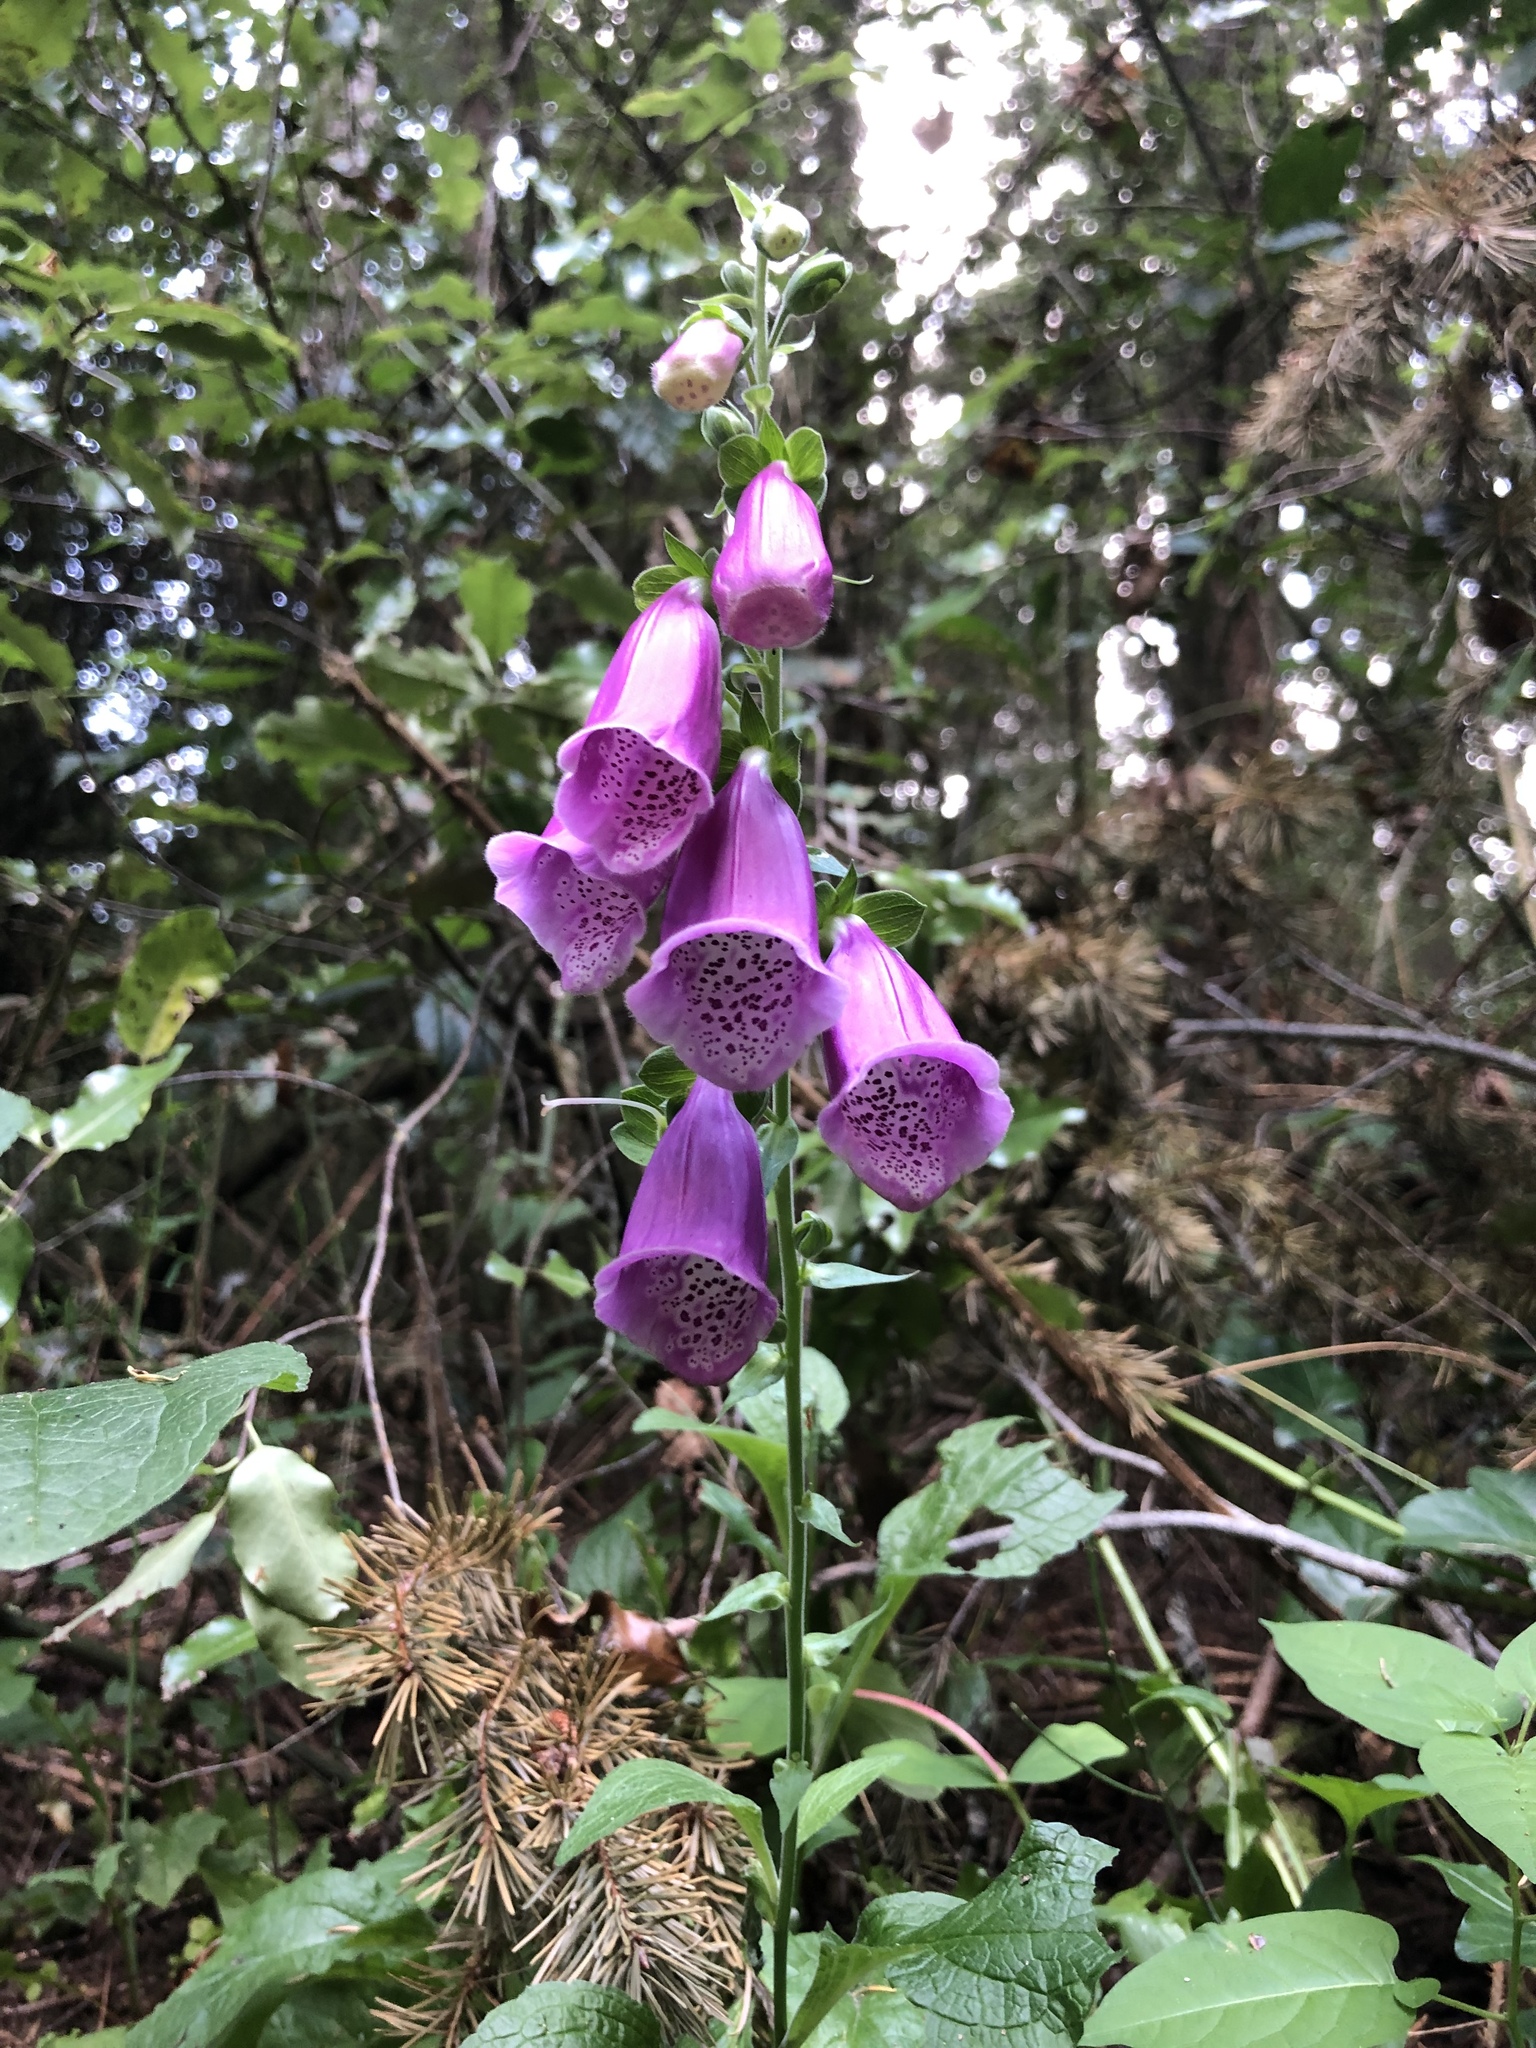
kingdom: Plantae
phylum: Tracheophyta
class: Magnoliopsida
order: Lamiales
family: Plantaginaceae
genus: Digitalis
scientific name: Digitalis purpurea
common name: Foxglove
